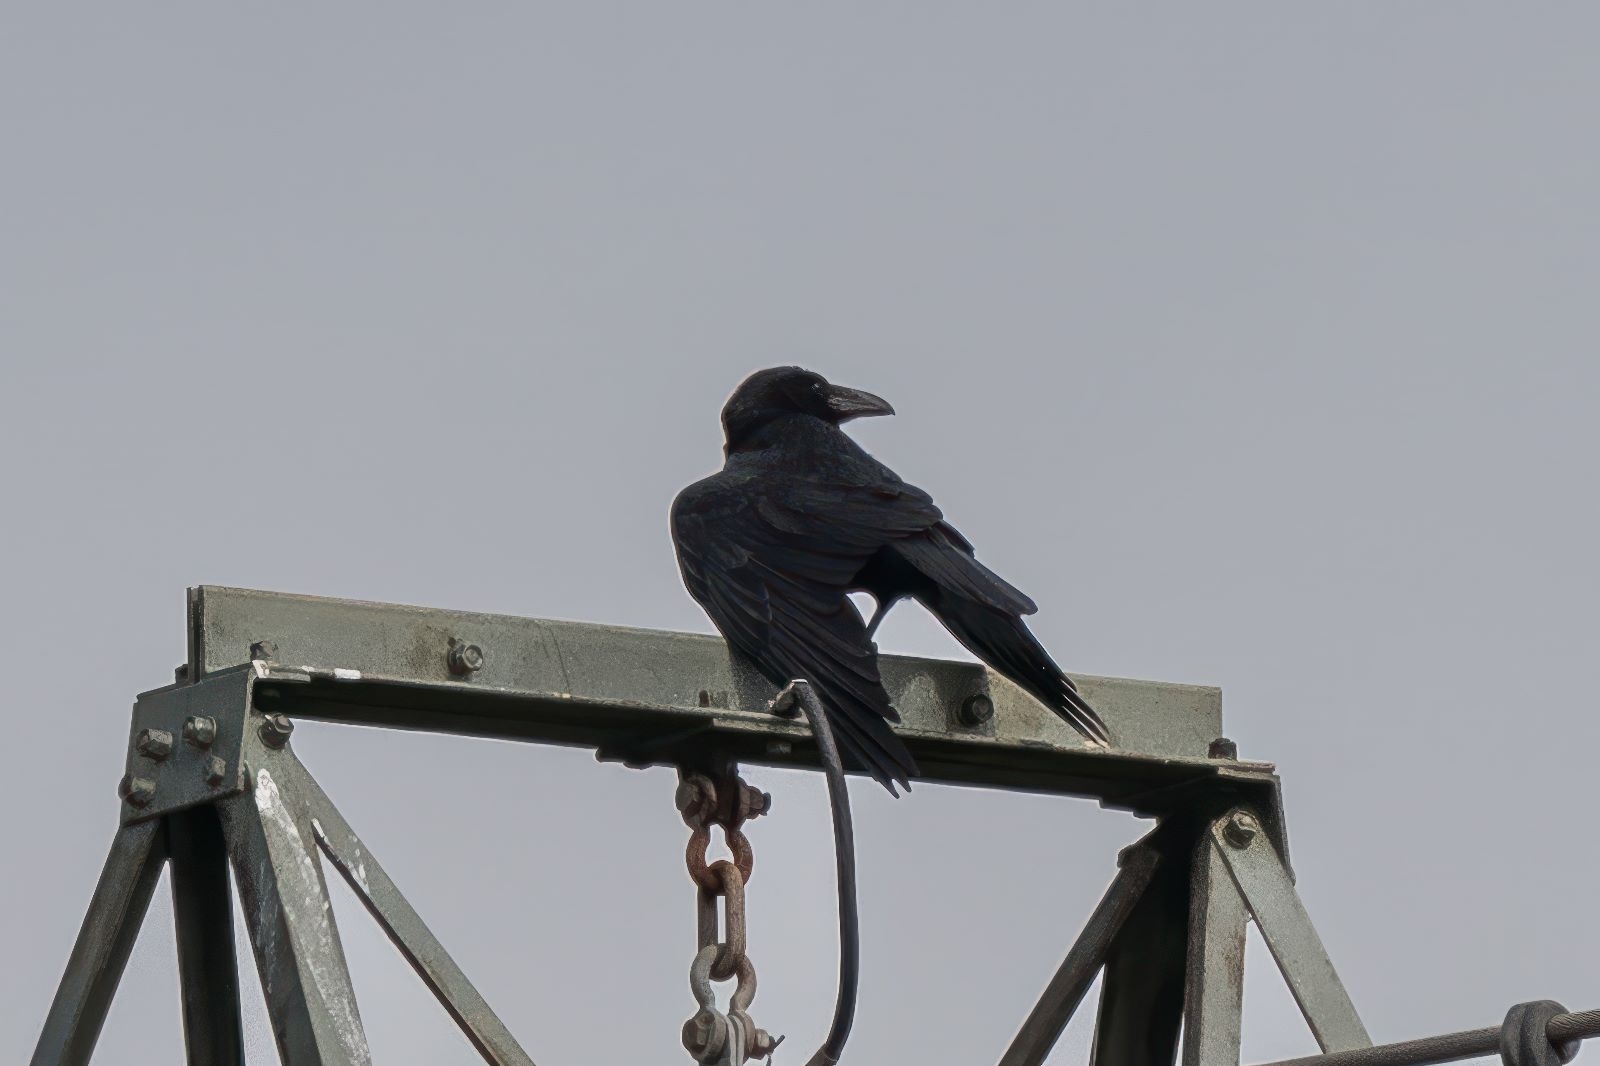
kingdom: Animalia
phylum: Chordata
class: Aves
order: Passeriformes
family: Corvidae
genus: Corvus
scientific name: Corvus corax
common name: Common raven
